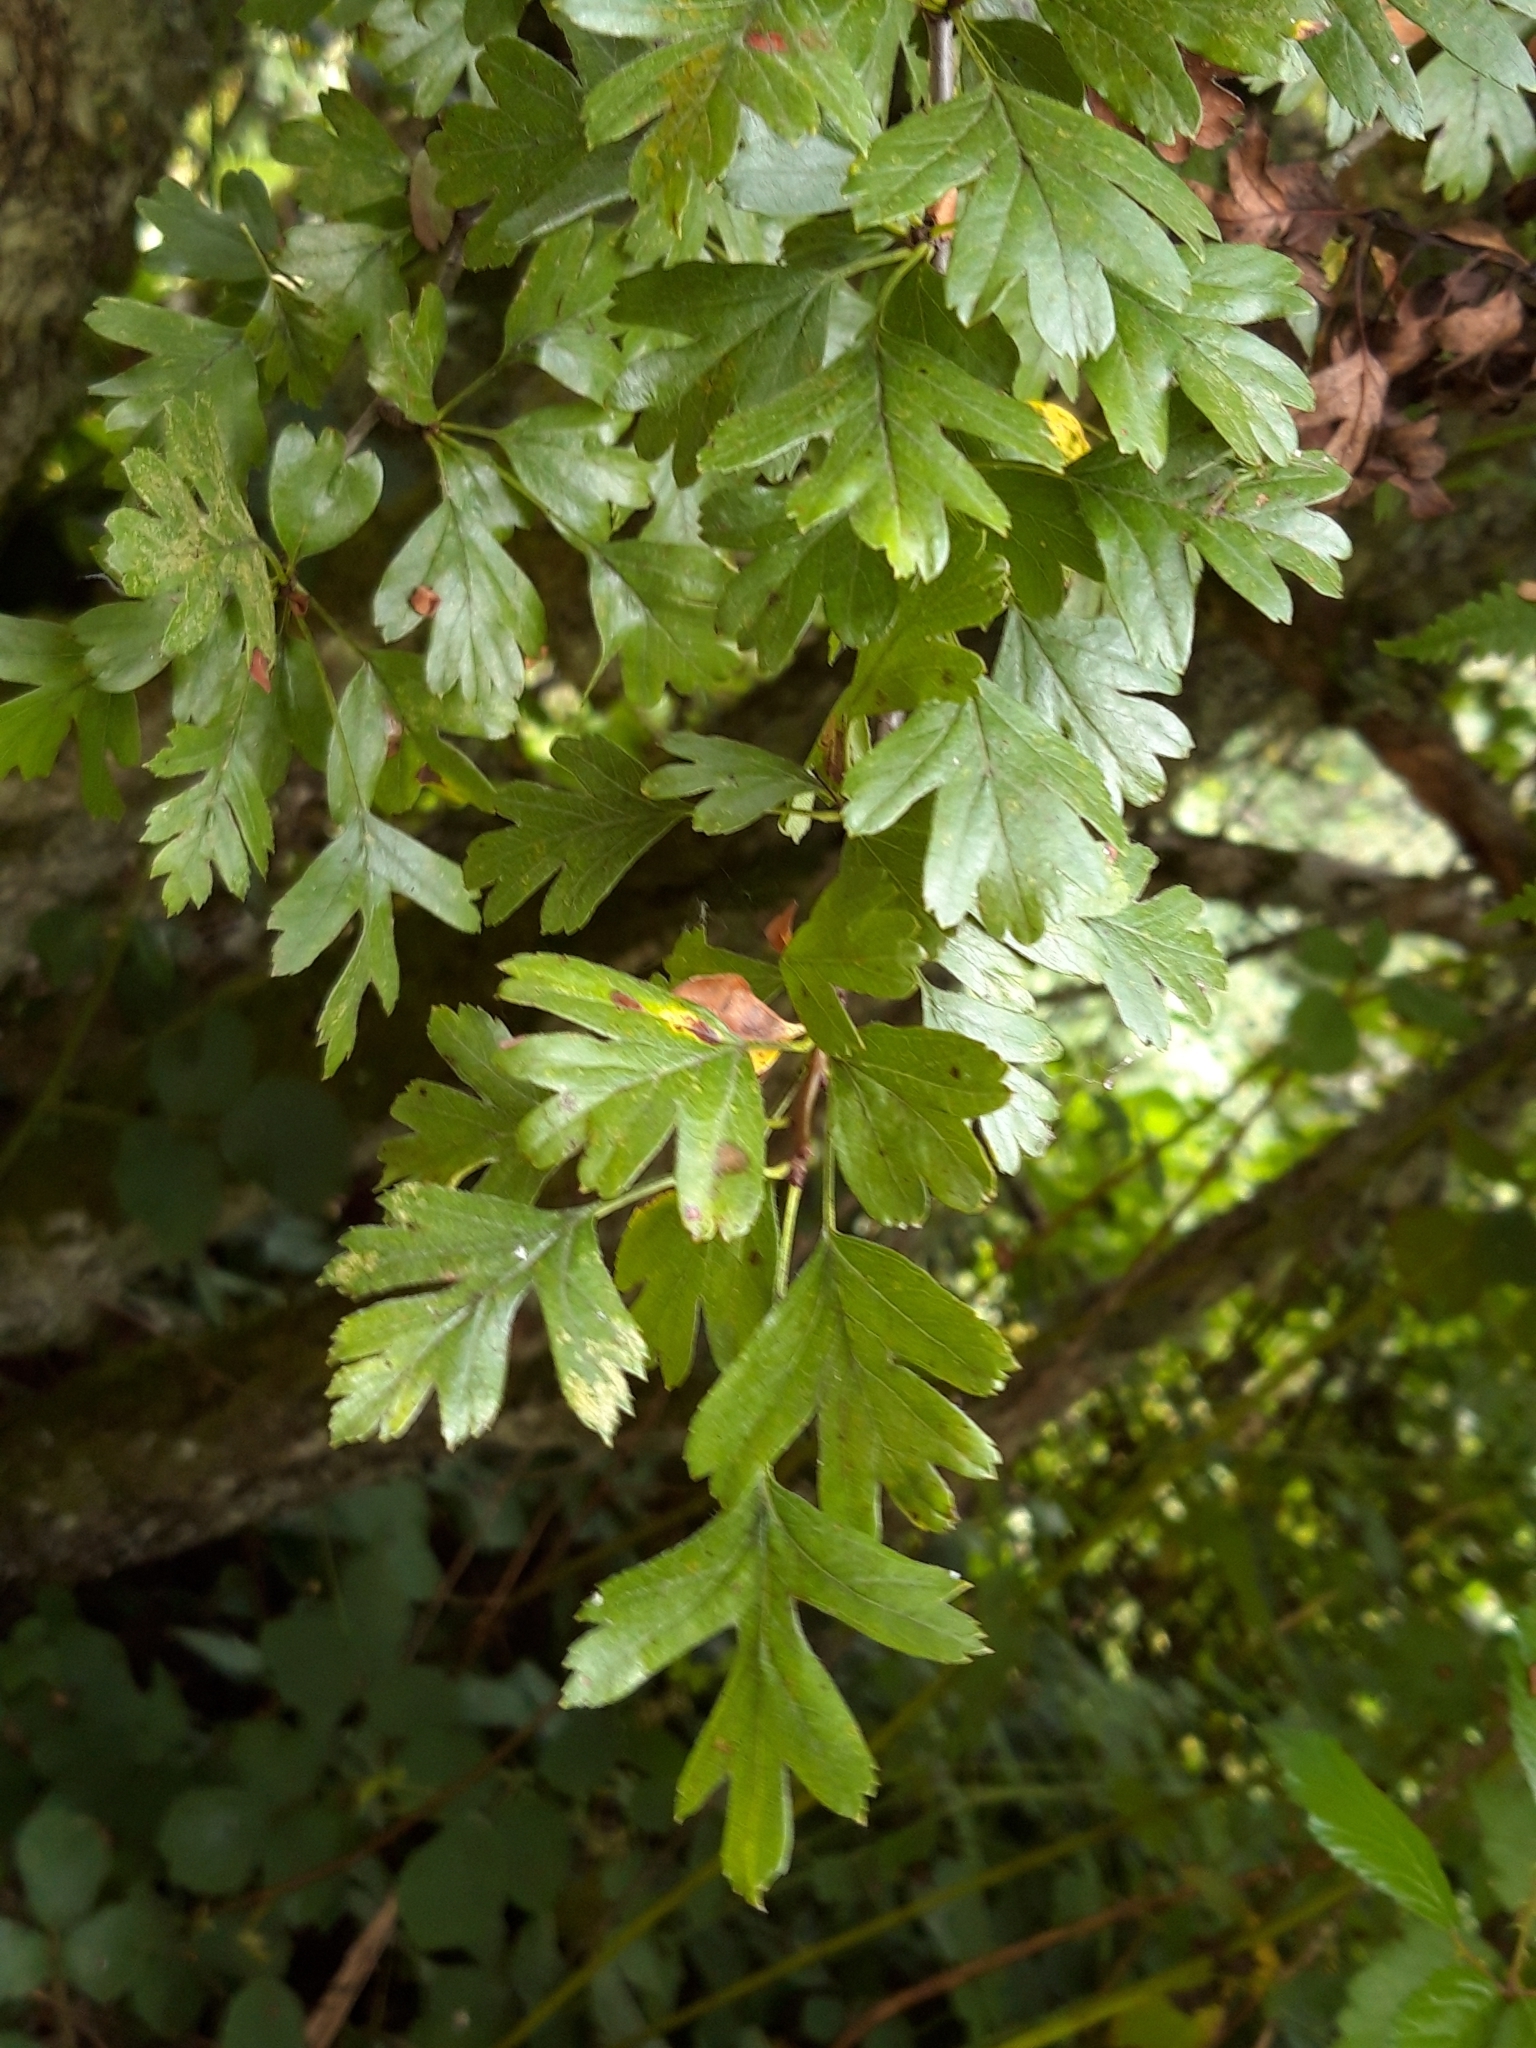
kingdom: Plantae
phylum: Tracheophyta
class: Magnoliopsida
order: Rosales
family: Rosaceae
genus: Crataegus
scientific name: Crataegus monogyna
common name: Hawthorn
